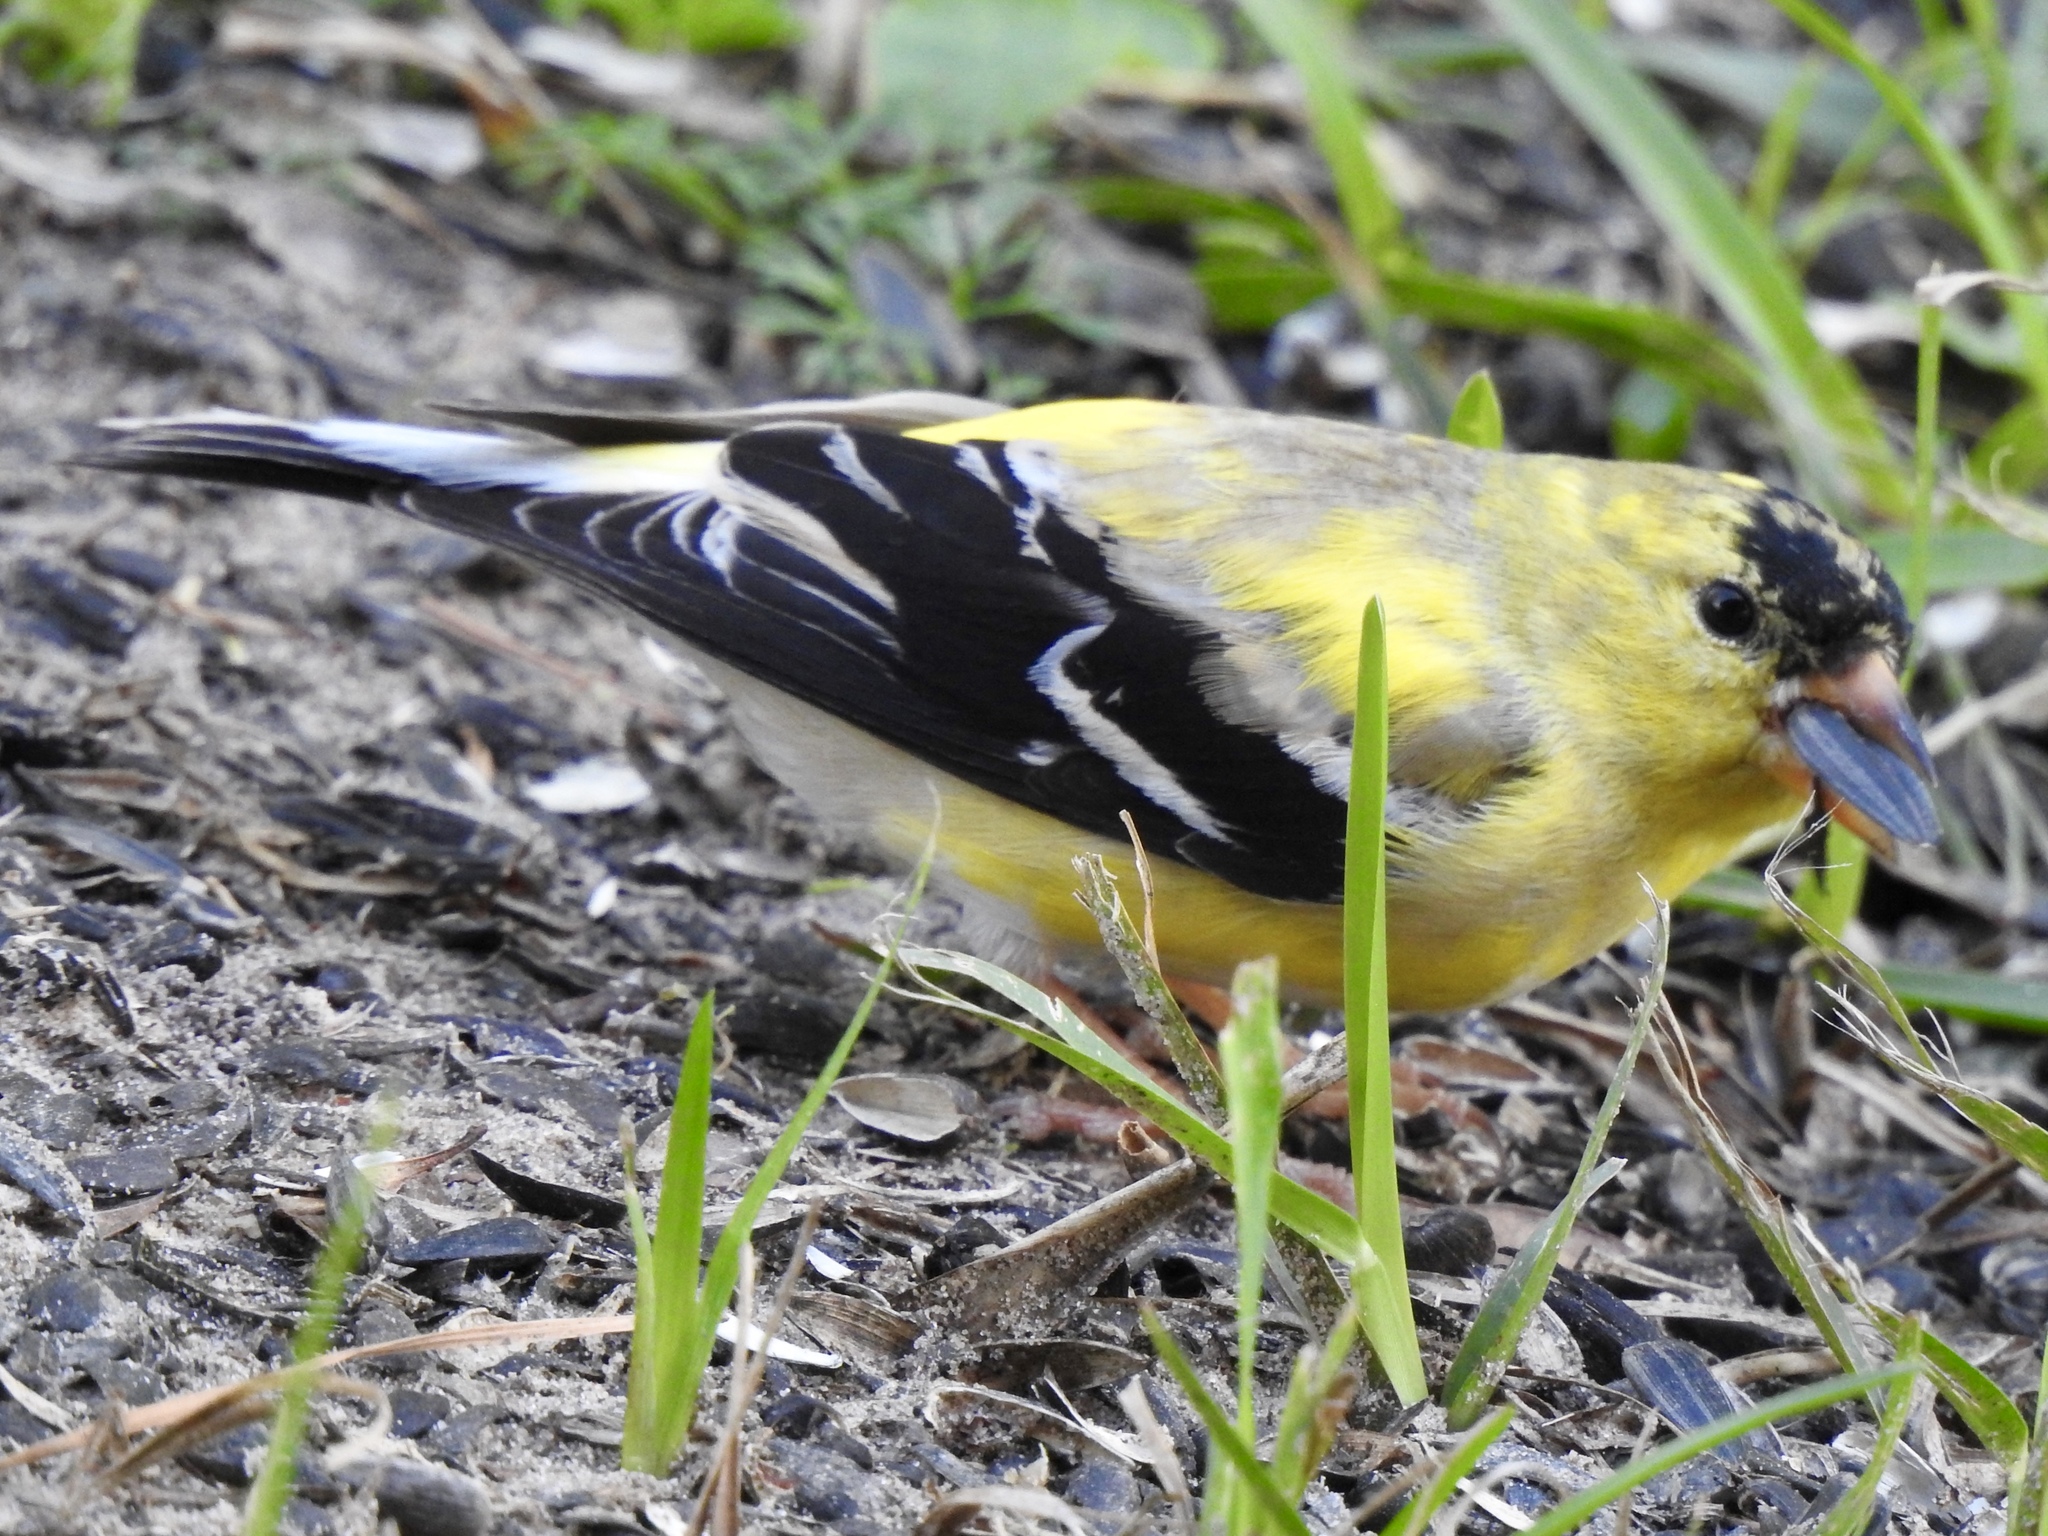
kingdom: Animalia
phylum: Chordata
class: Aves
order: Passeriformes
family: Fringillidae
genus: Spinus
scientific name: Spinus tristis
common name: American goldfinch
